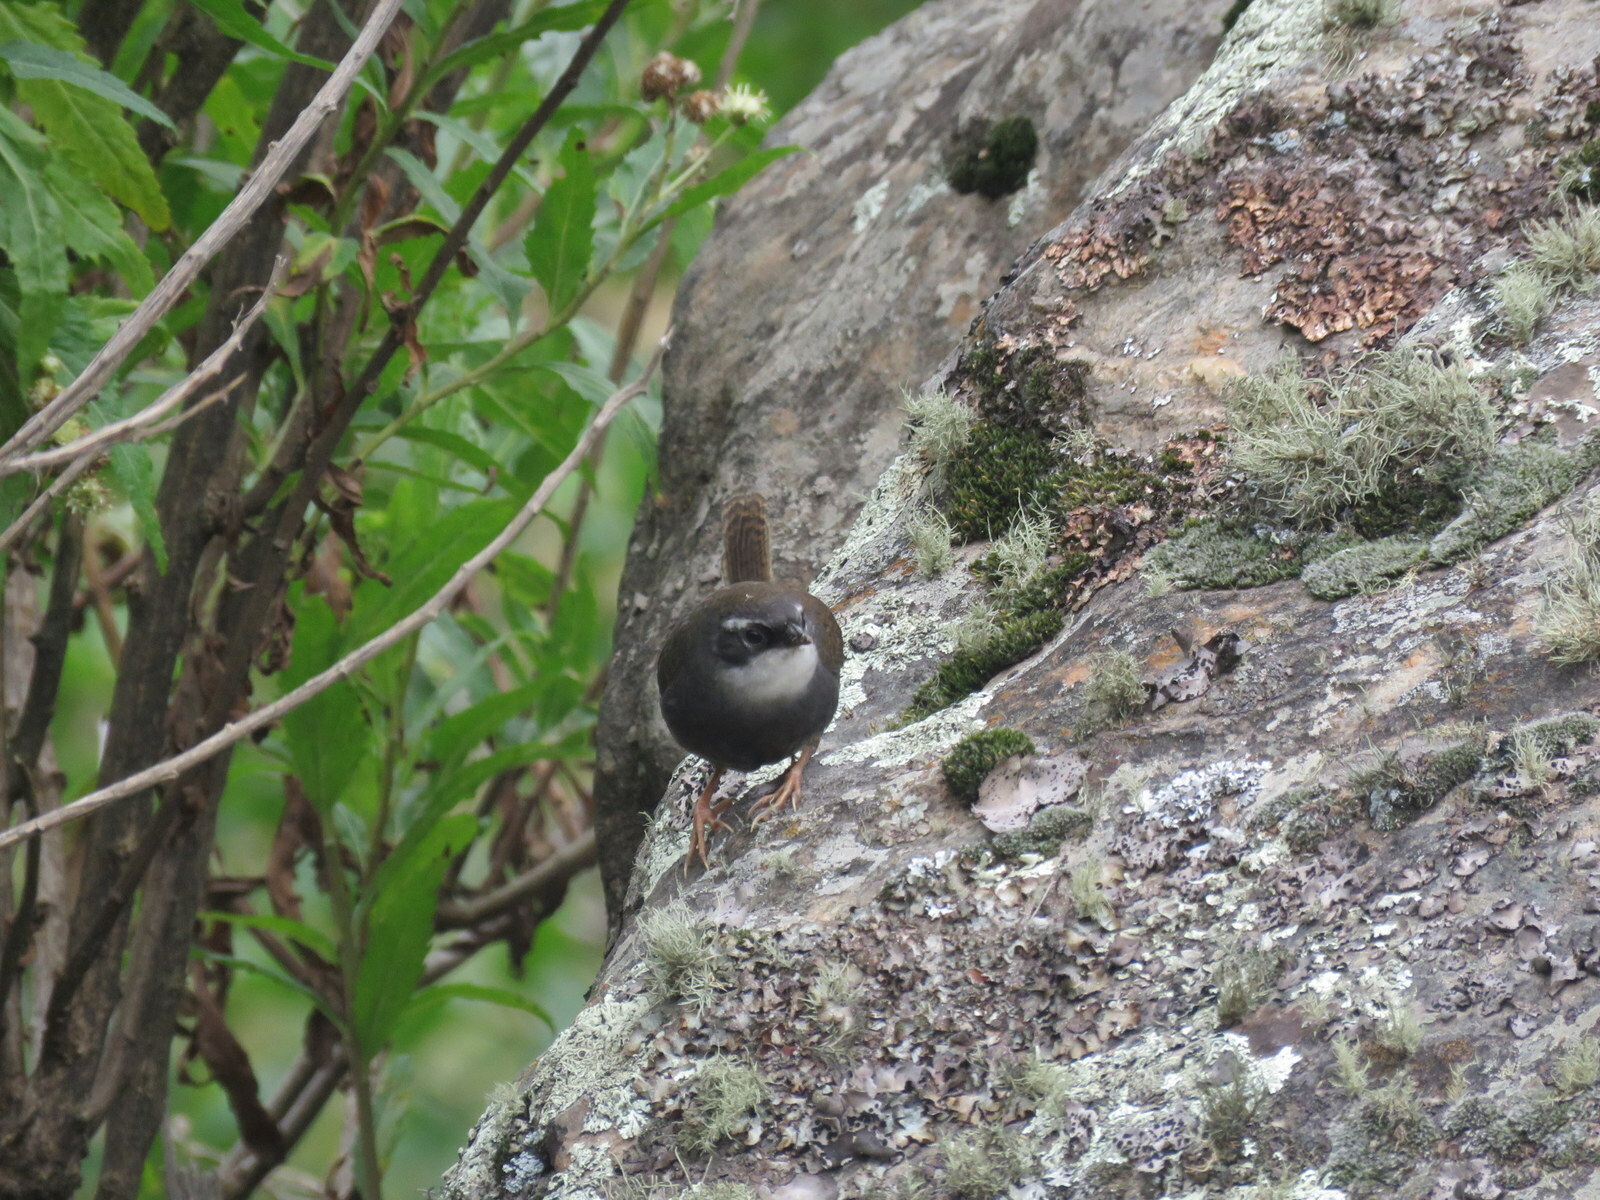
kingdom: Animalia
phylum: Chordata
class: Aves
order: Passeriformes
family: Rhinocryptidae
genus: Scytalopus
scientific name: Scytalopus superciliaris
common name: White-browed tapaculo
